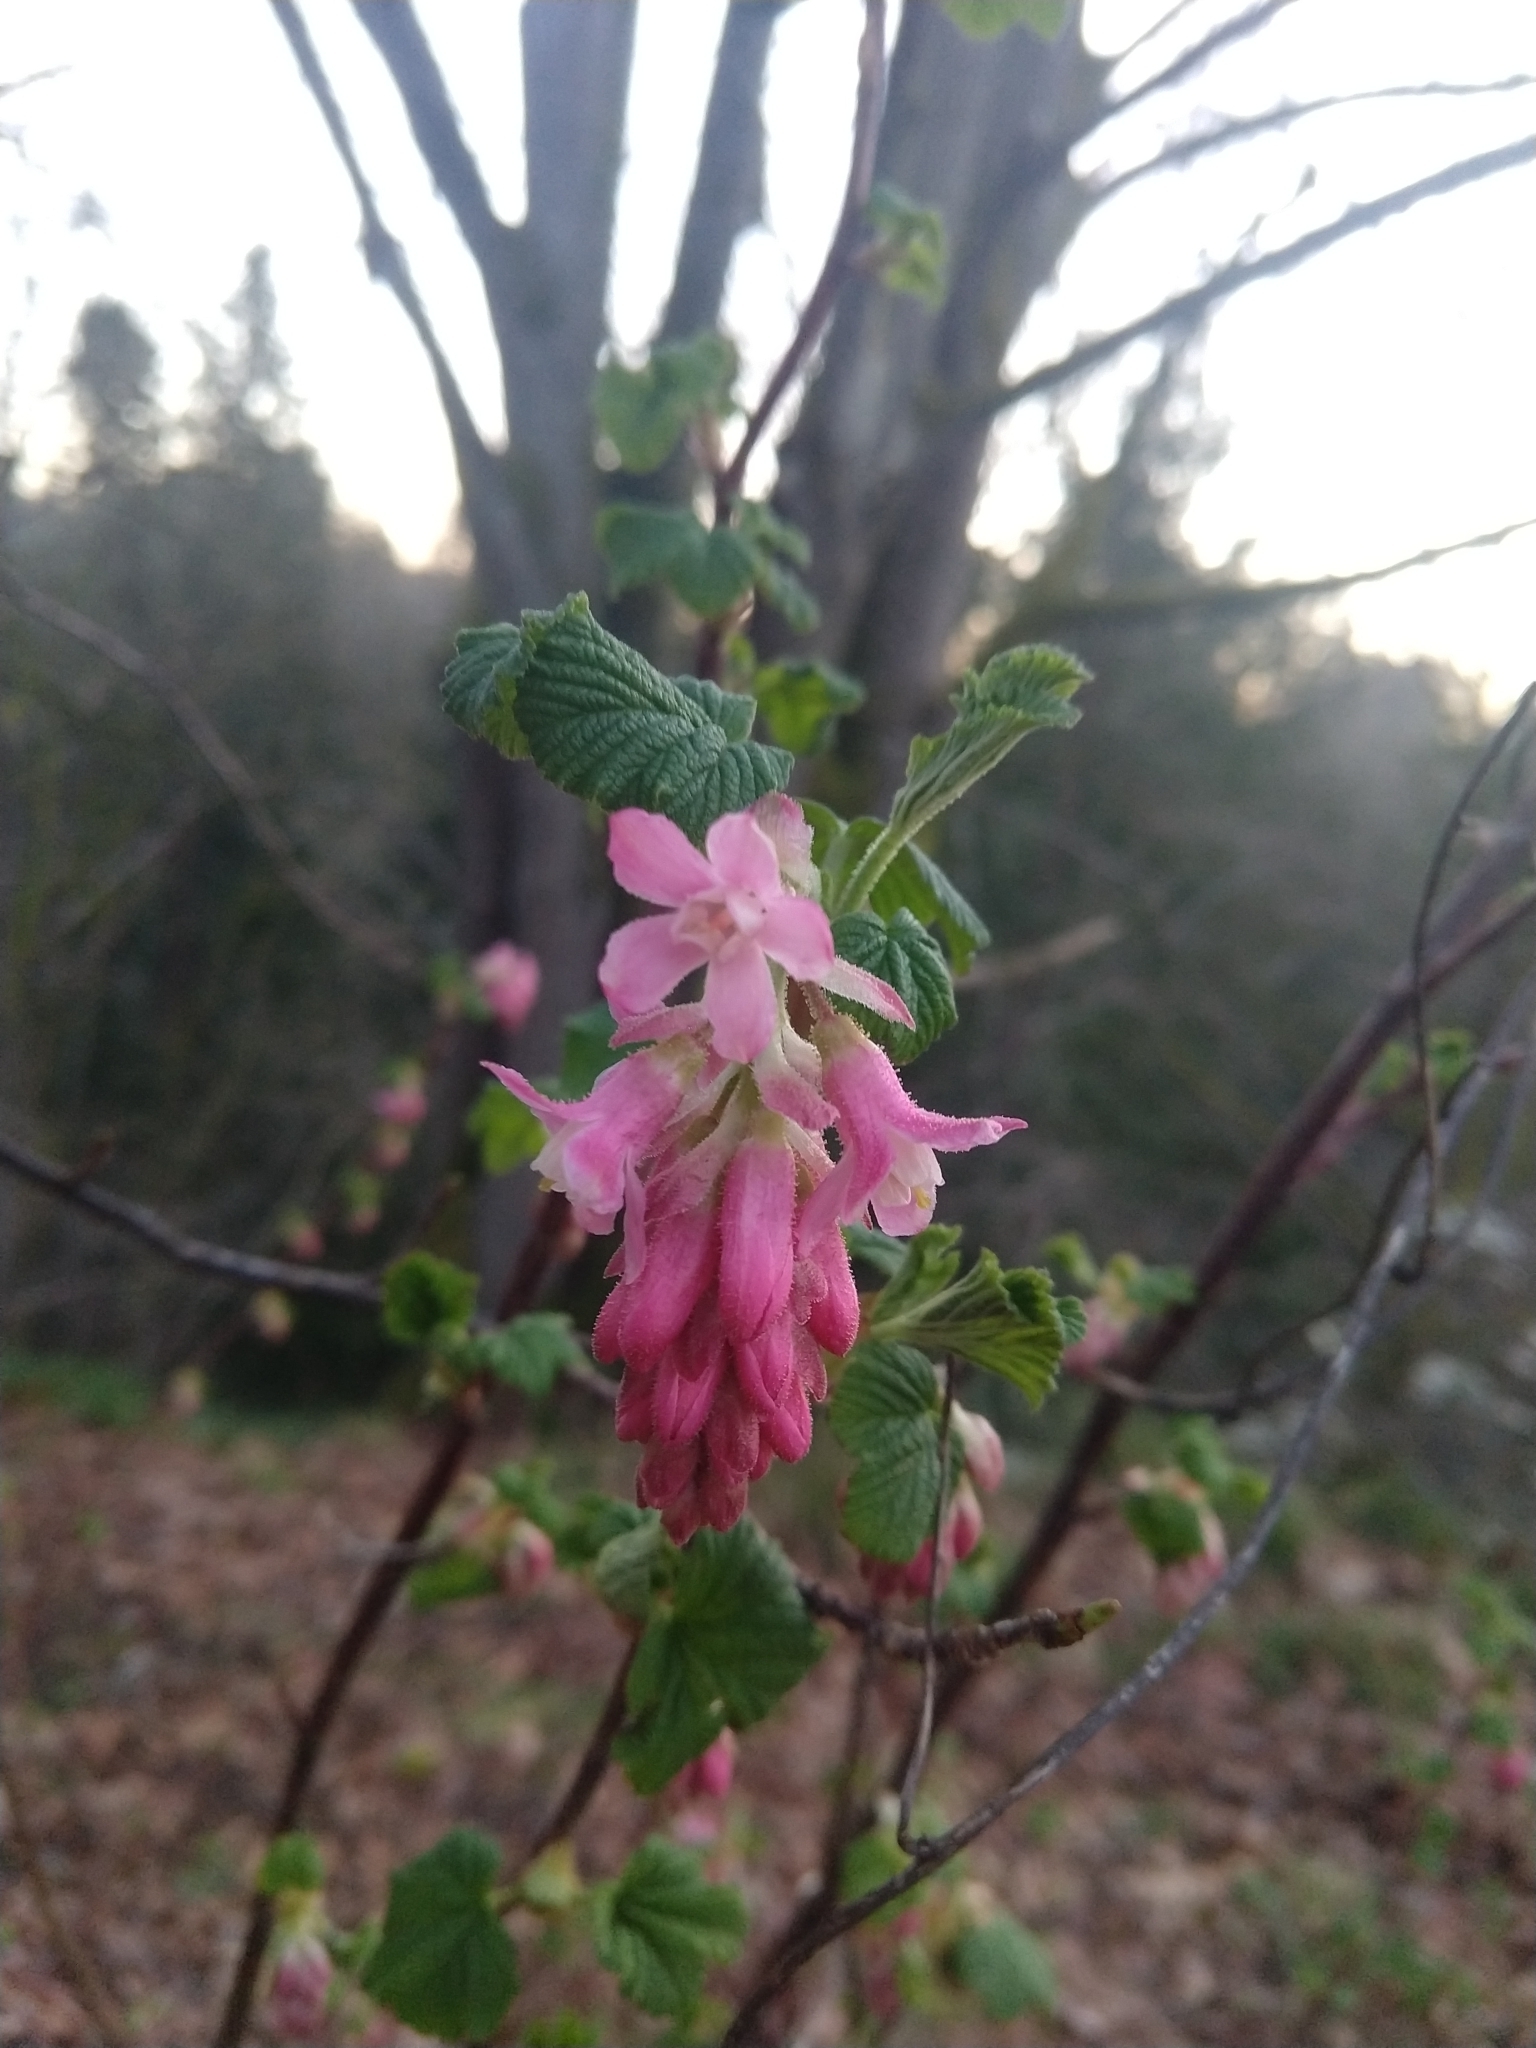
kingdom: Plantae
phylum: Tracheophyta
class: Magnoliopsida
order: Saxifragales
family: Grossulariaceae
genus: Ribes
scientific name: Ribes sanguineum
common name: Flowering currant
